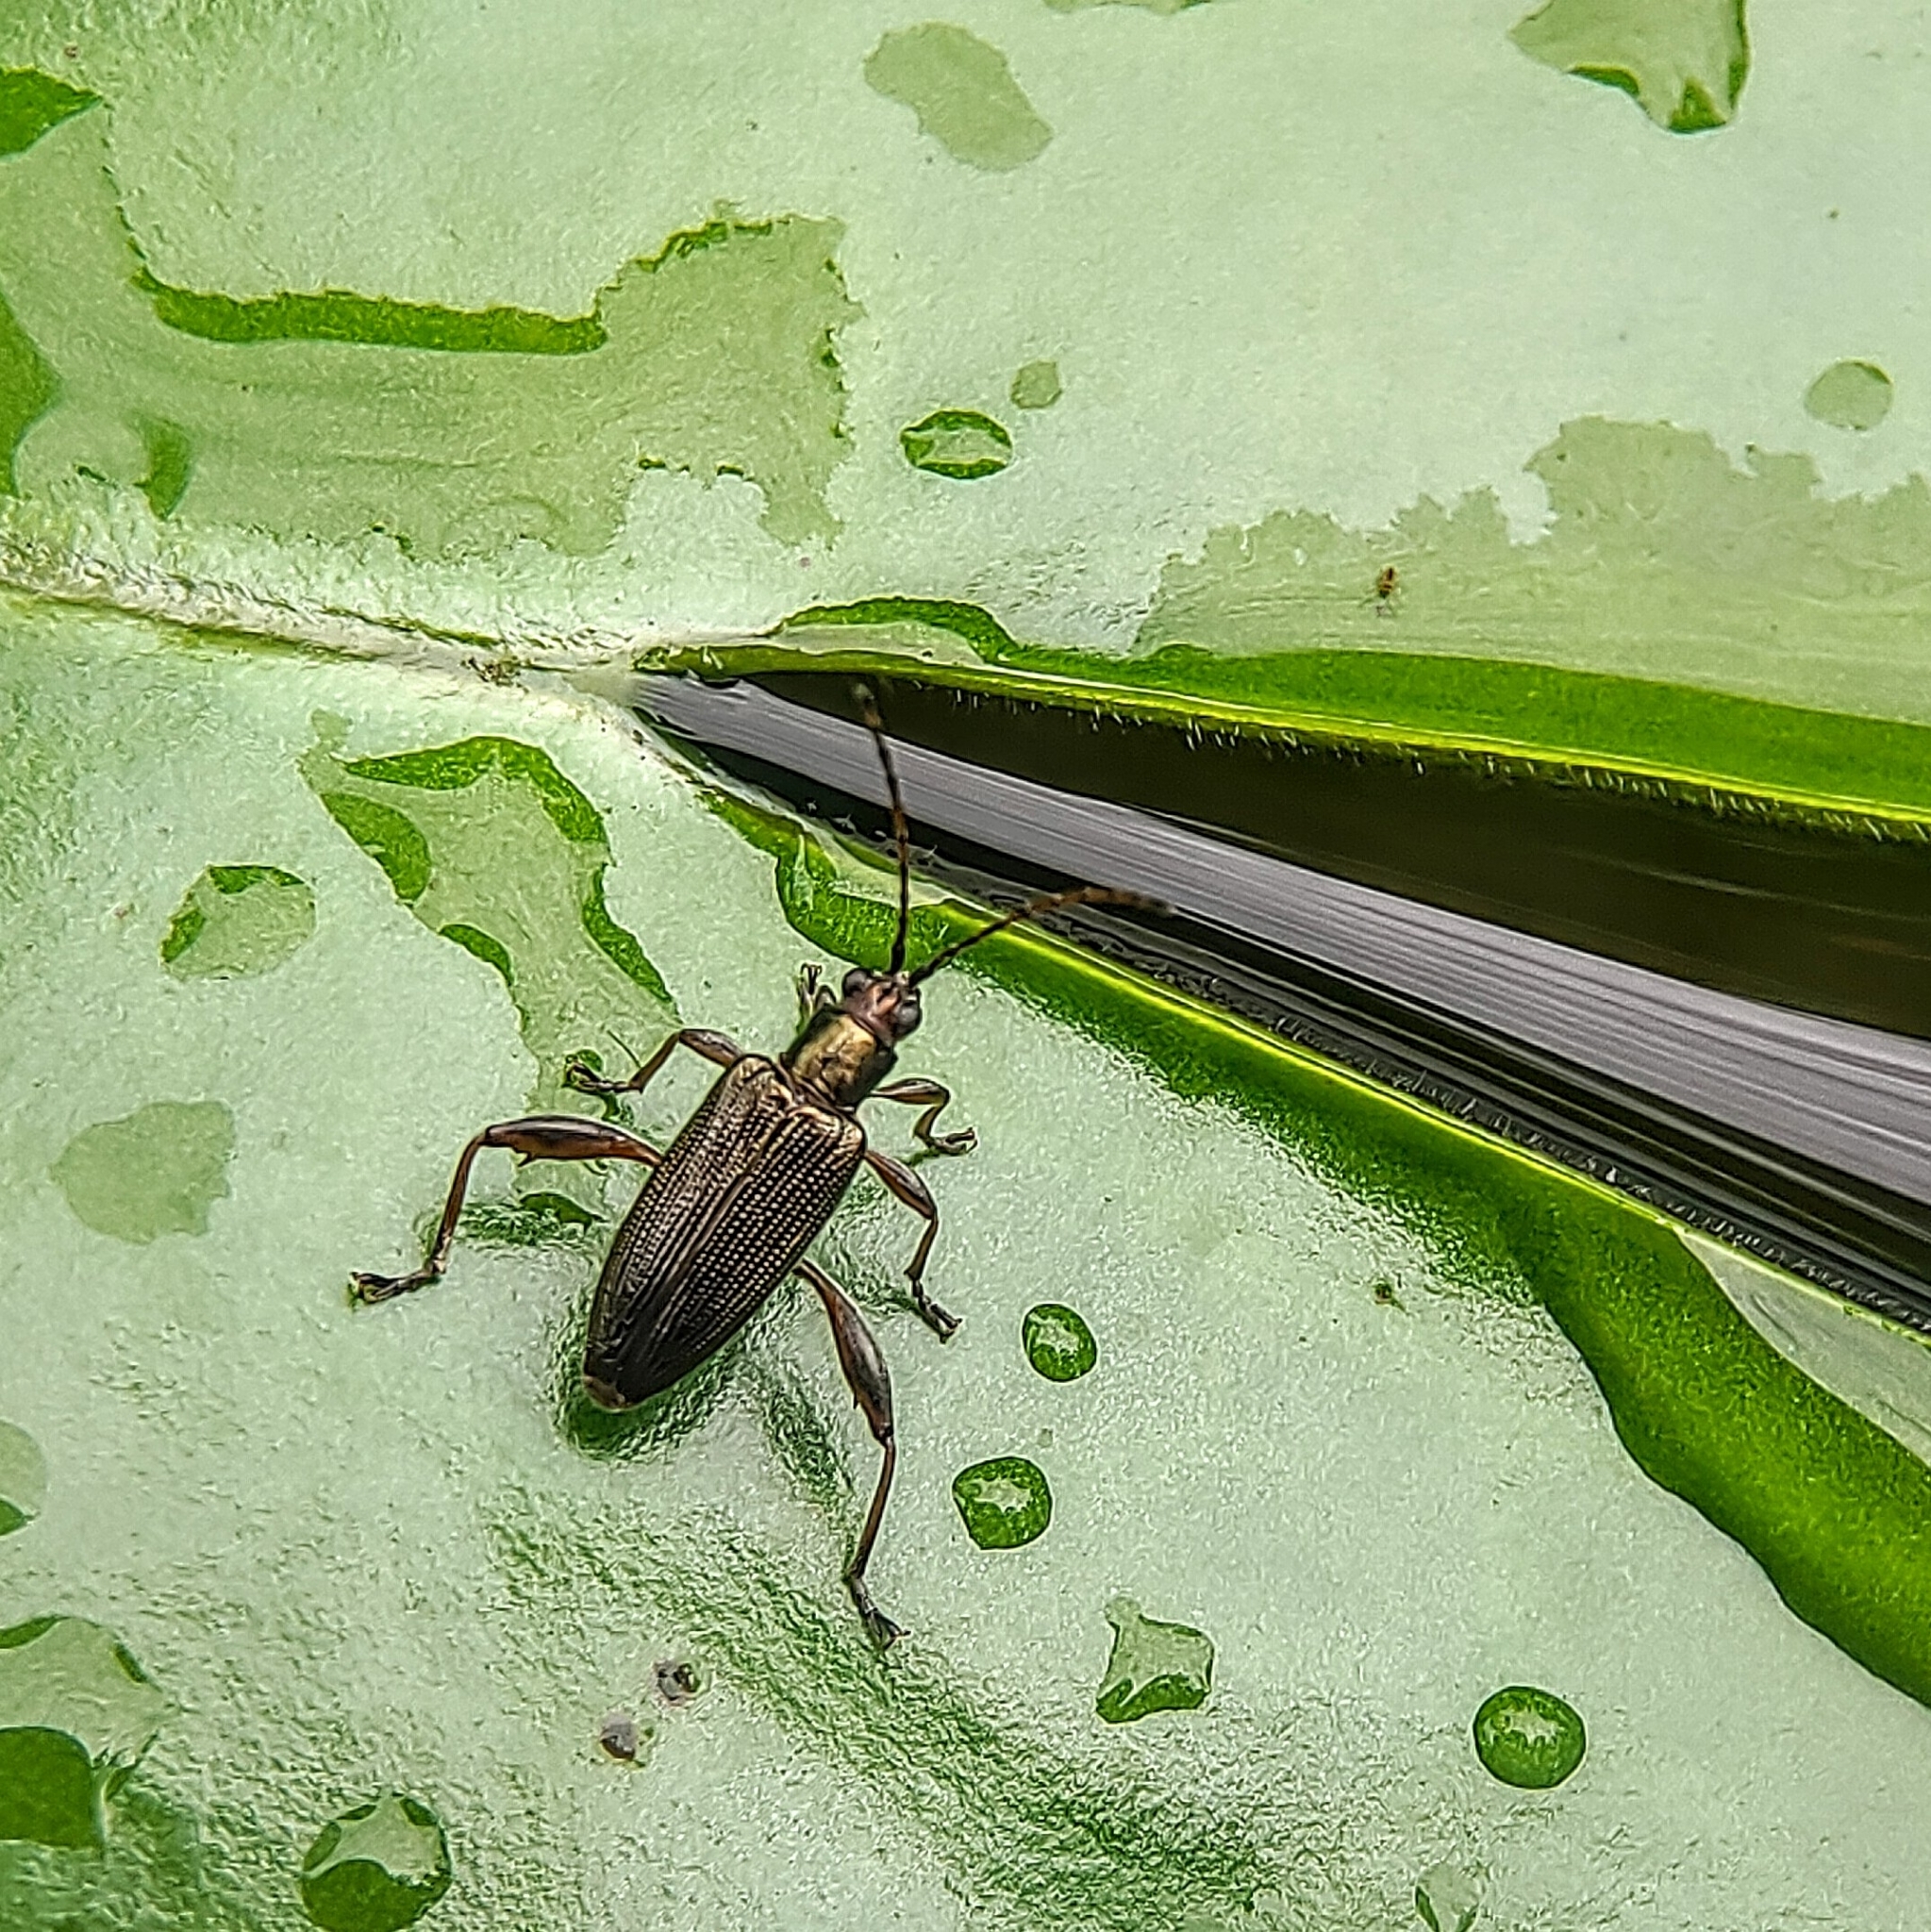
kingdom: Animalia
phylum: Arthropoda
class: Insecta
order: Coleoptera
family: Chrysomelidae
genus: Donacia
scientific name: Donacia japana
